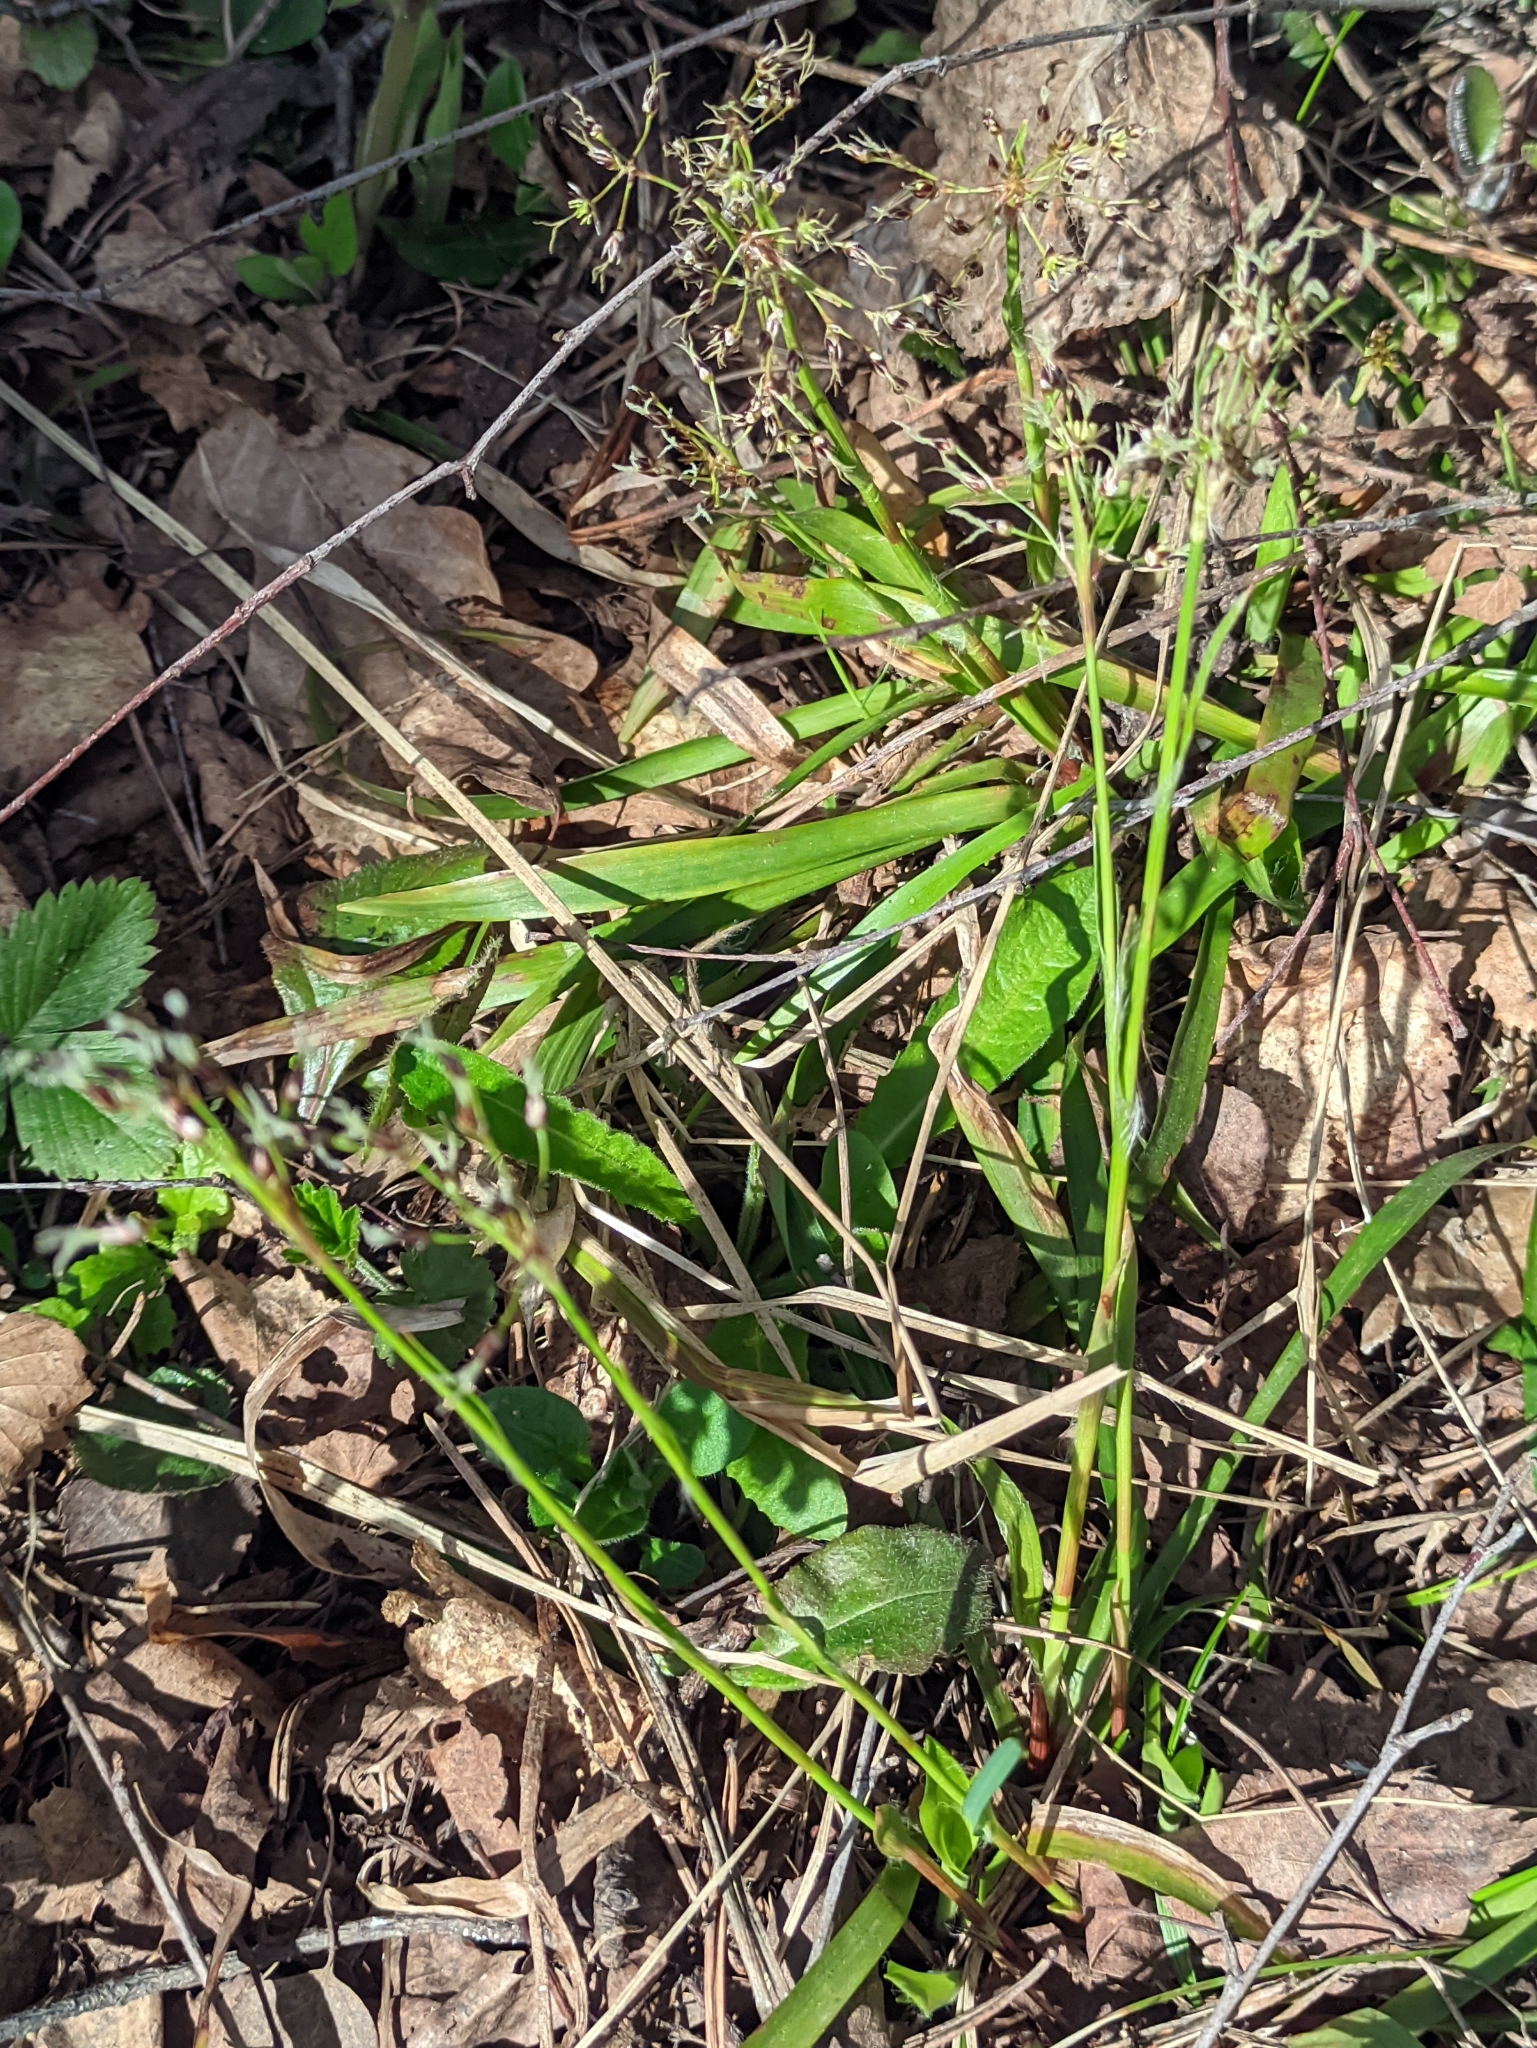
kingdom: Plantae
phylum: Tracheophyta
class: Liliopsida
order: Poales
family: Juncaceae
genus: Luzula
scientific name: Luzula pilosa
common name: Hairy wood-rush
